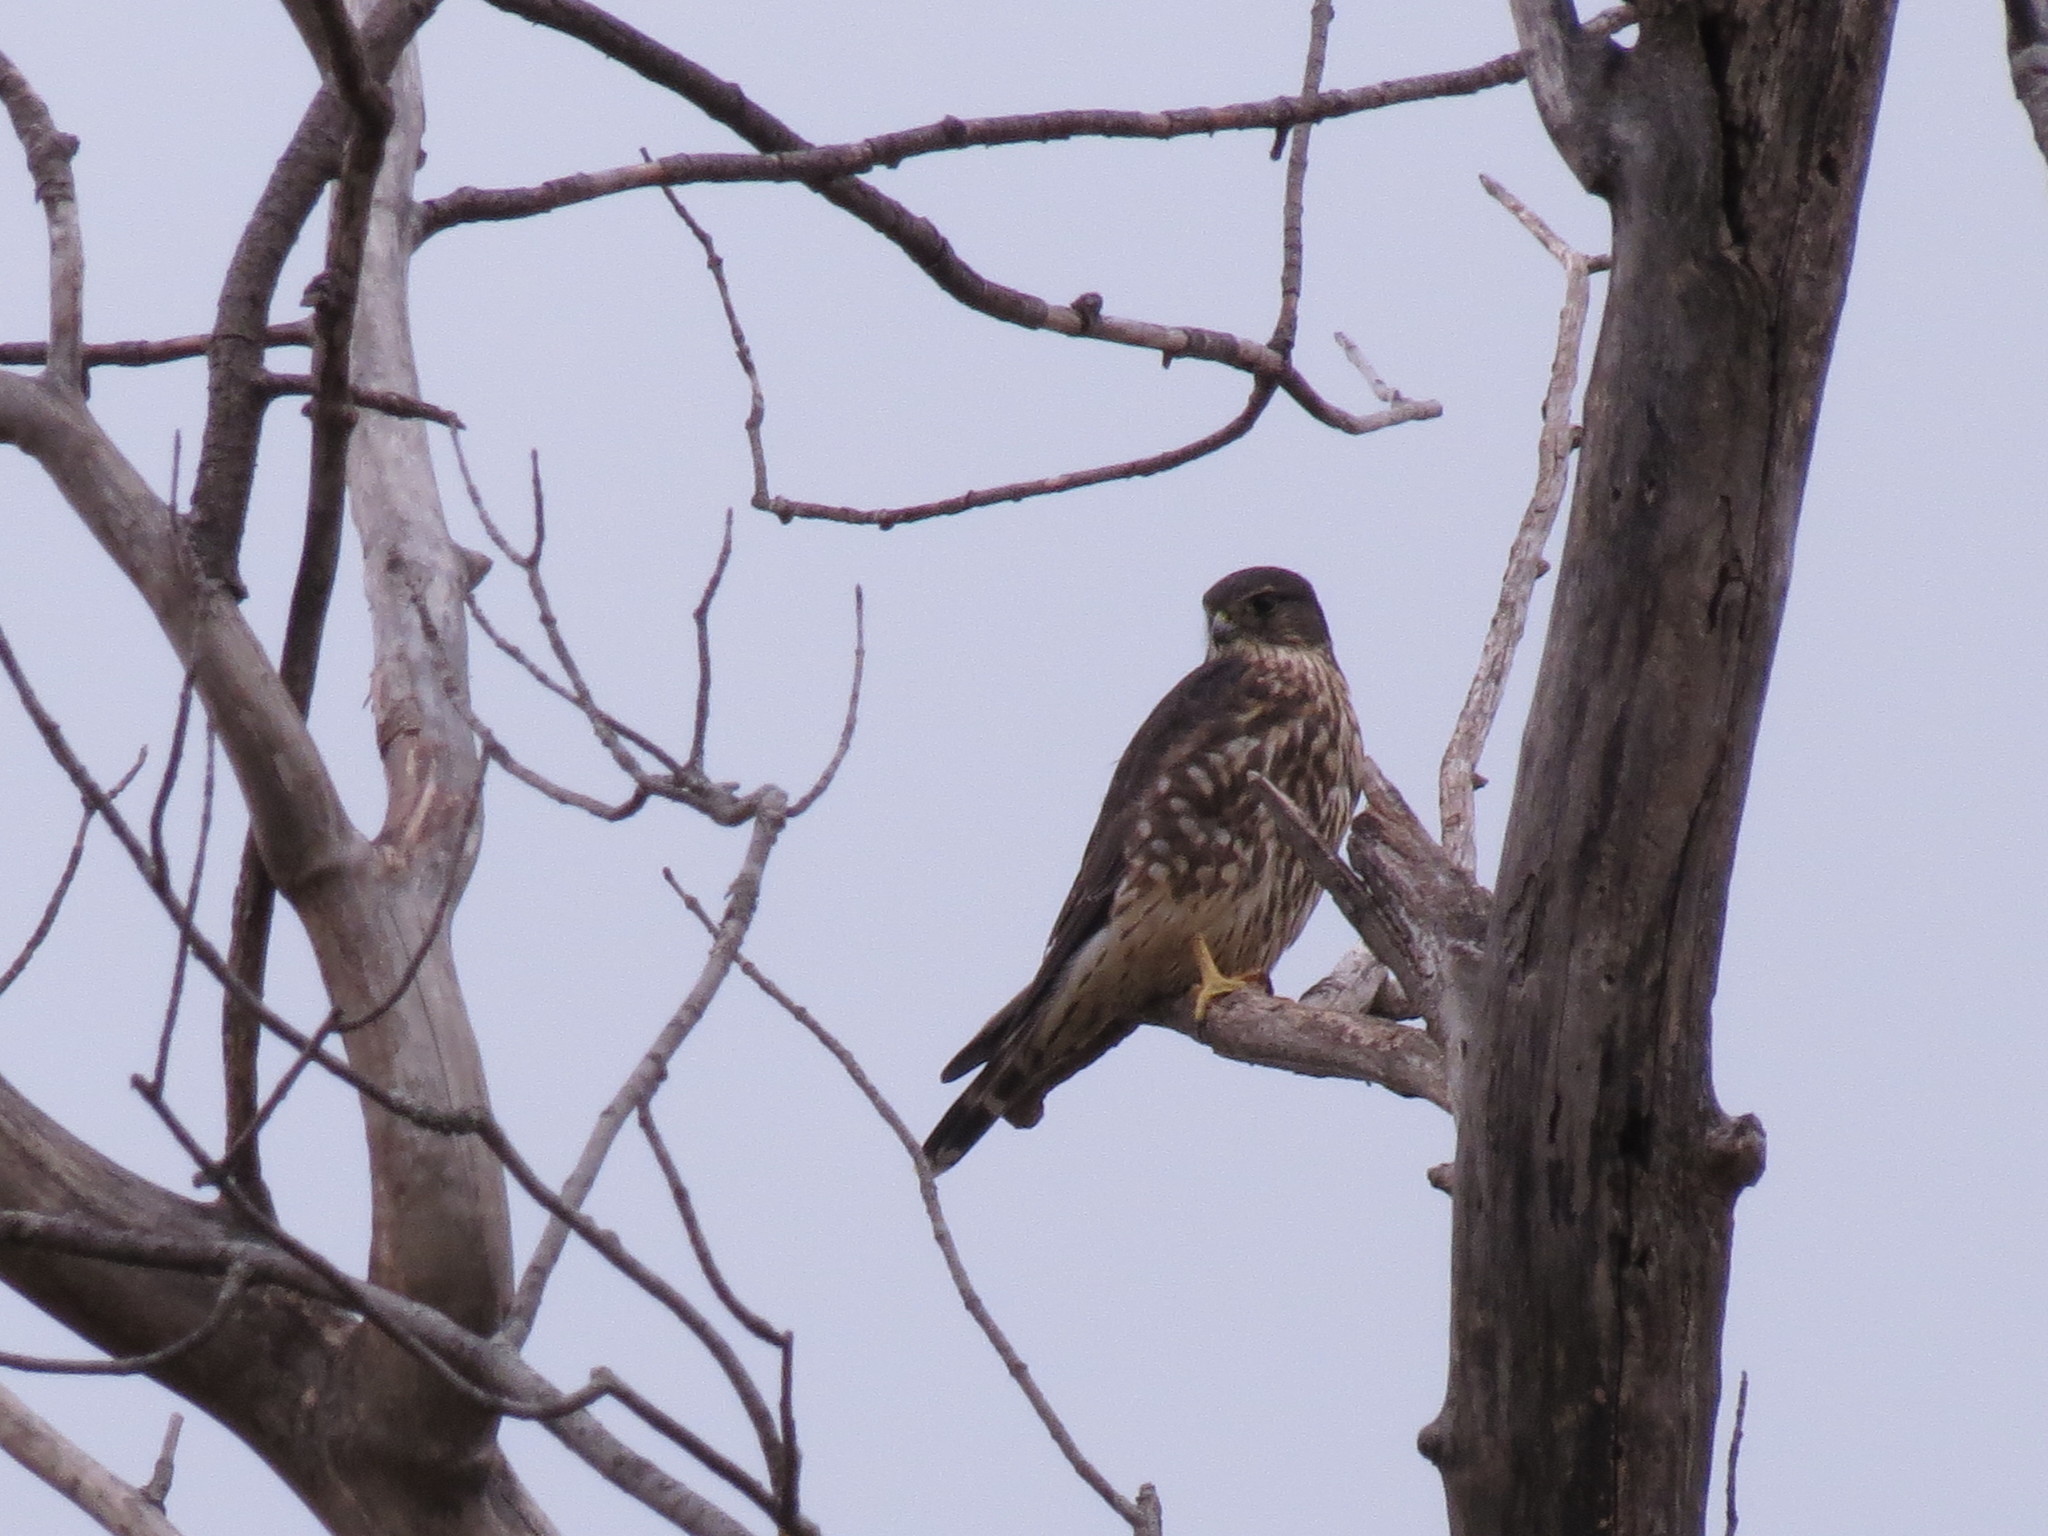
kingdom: Animalia
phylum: Chordata
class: Aves
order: Falconiformes
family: Falconidae
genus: Falco
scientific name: Falco columbarius
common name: Merlin
